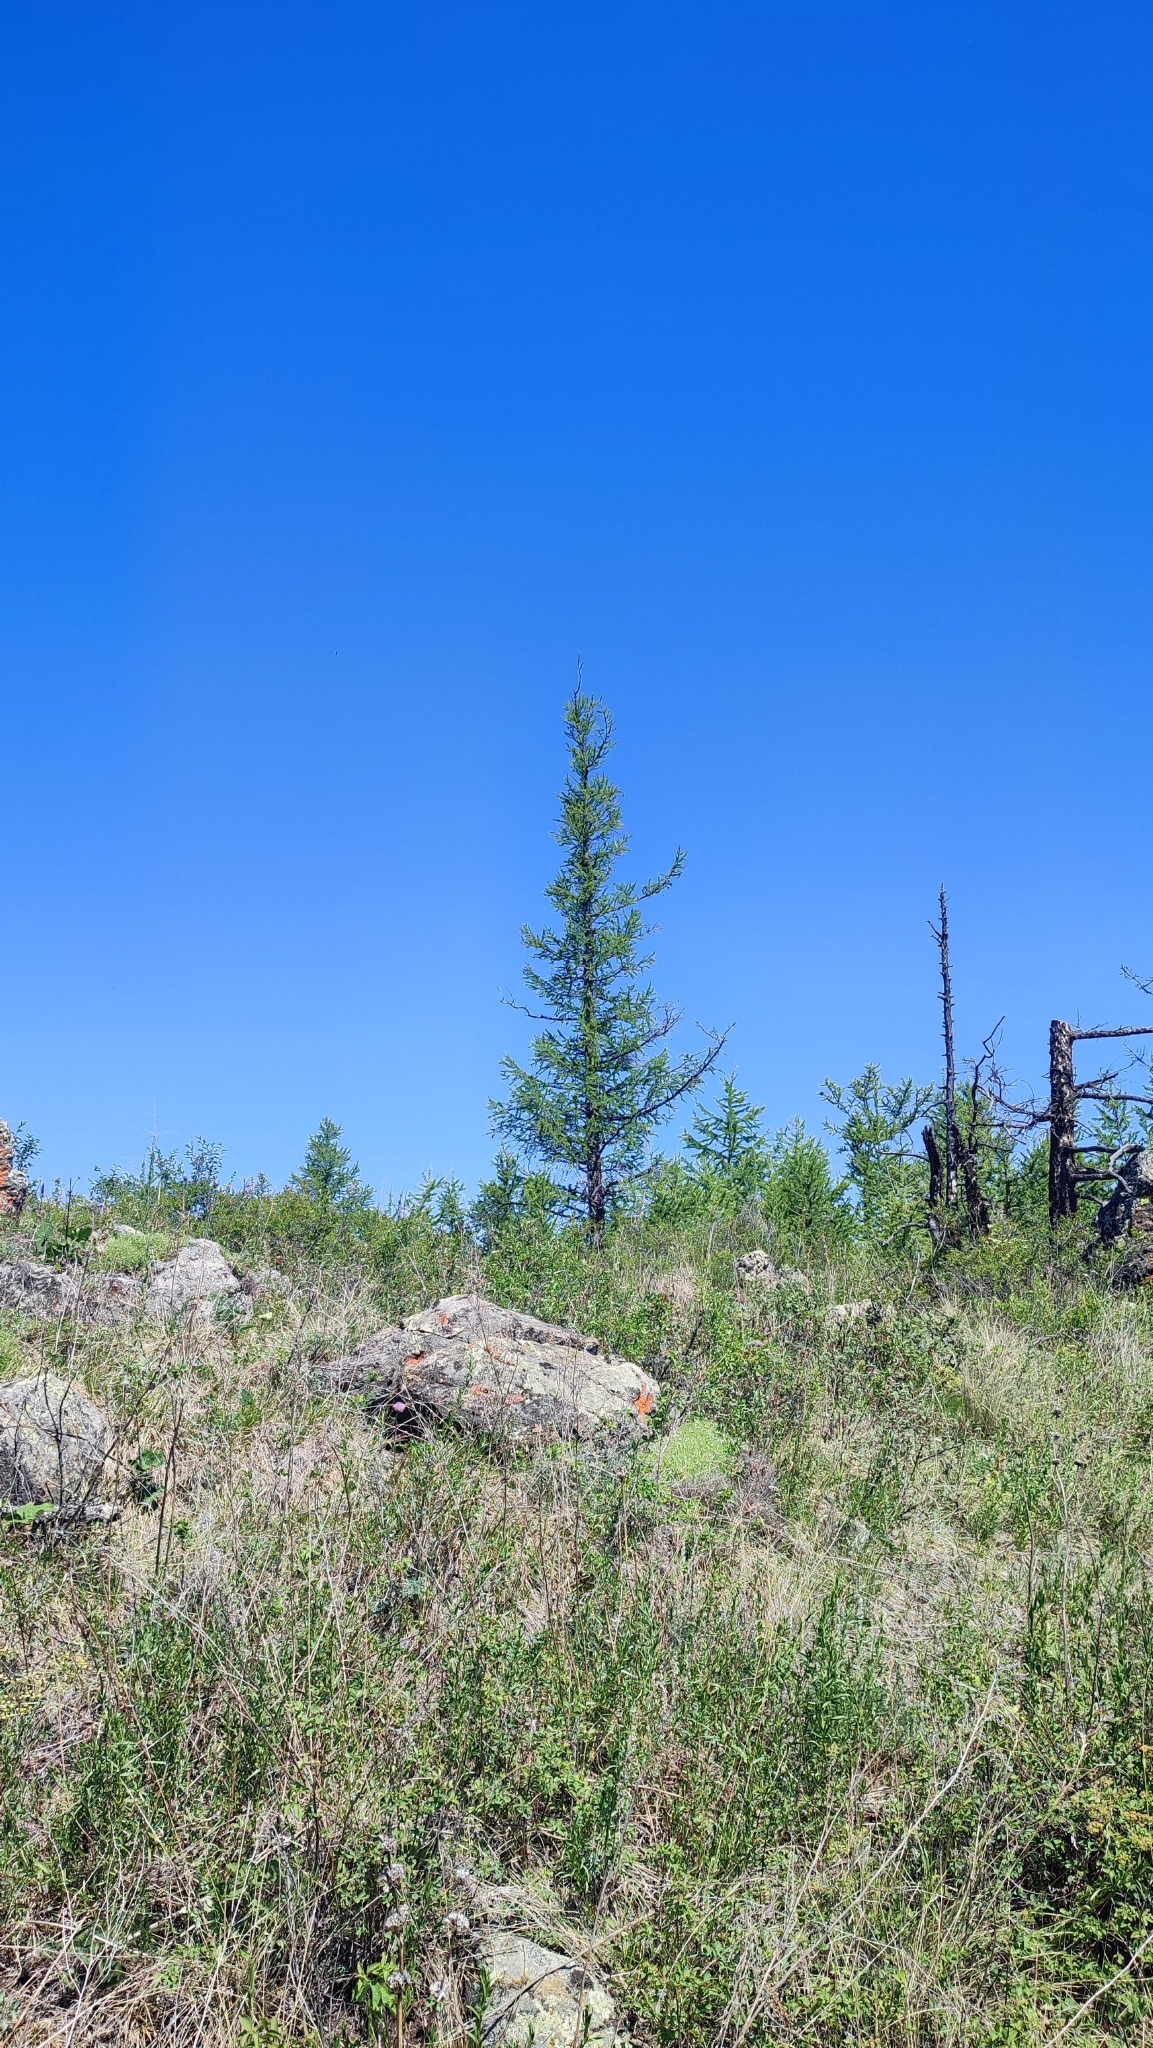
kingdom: Plantae
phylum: Tracheophyta
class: Pinopsida
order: Pinales
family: Pinaceae
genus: Larix
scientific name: Larix sibirica
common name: Siberian larch
